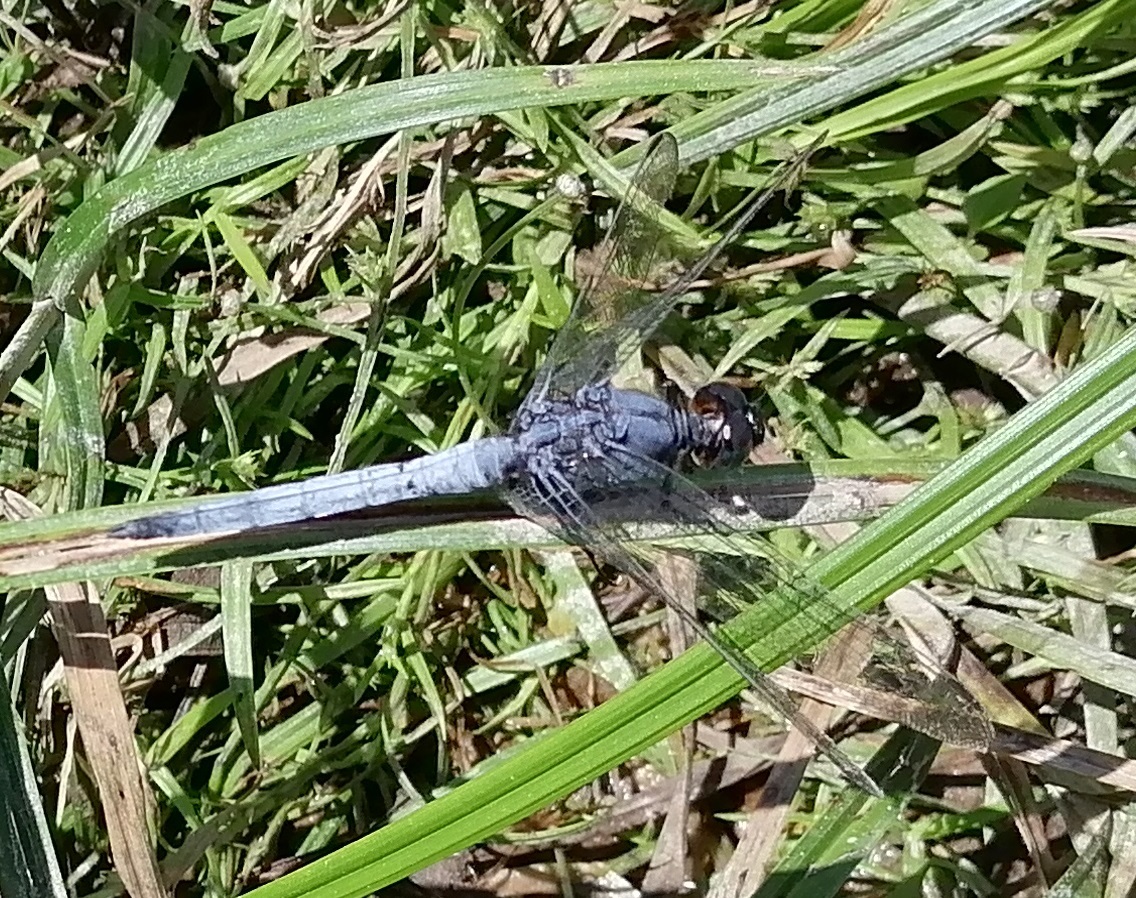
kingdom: Animalia
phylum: Arthropoda
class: Insecta
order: Odonata
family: Libellulidae
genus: Orthetrum
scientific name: Orthetrum glaucum
